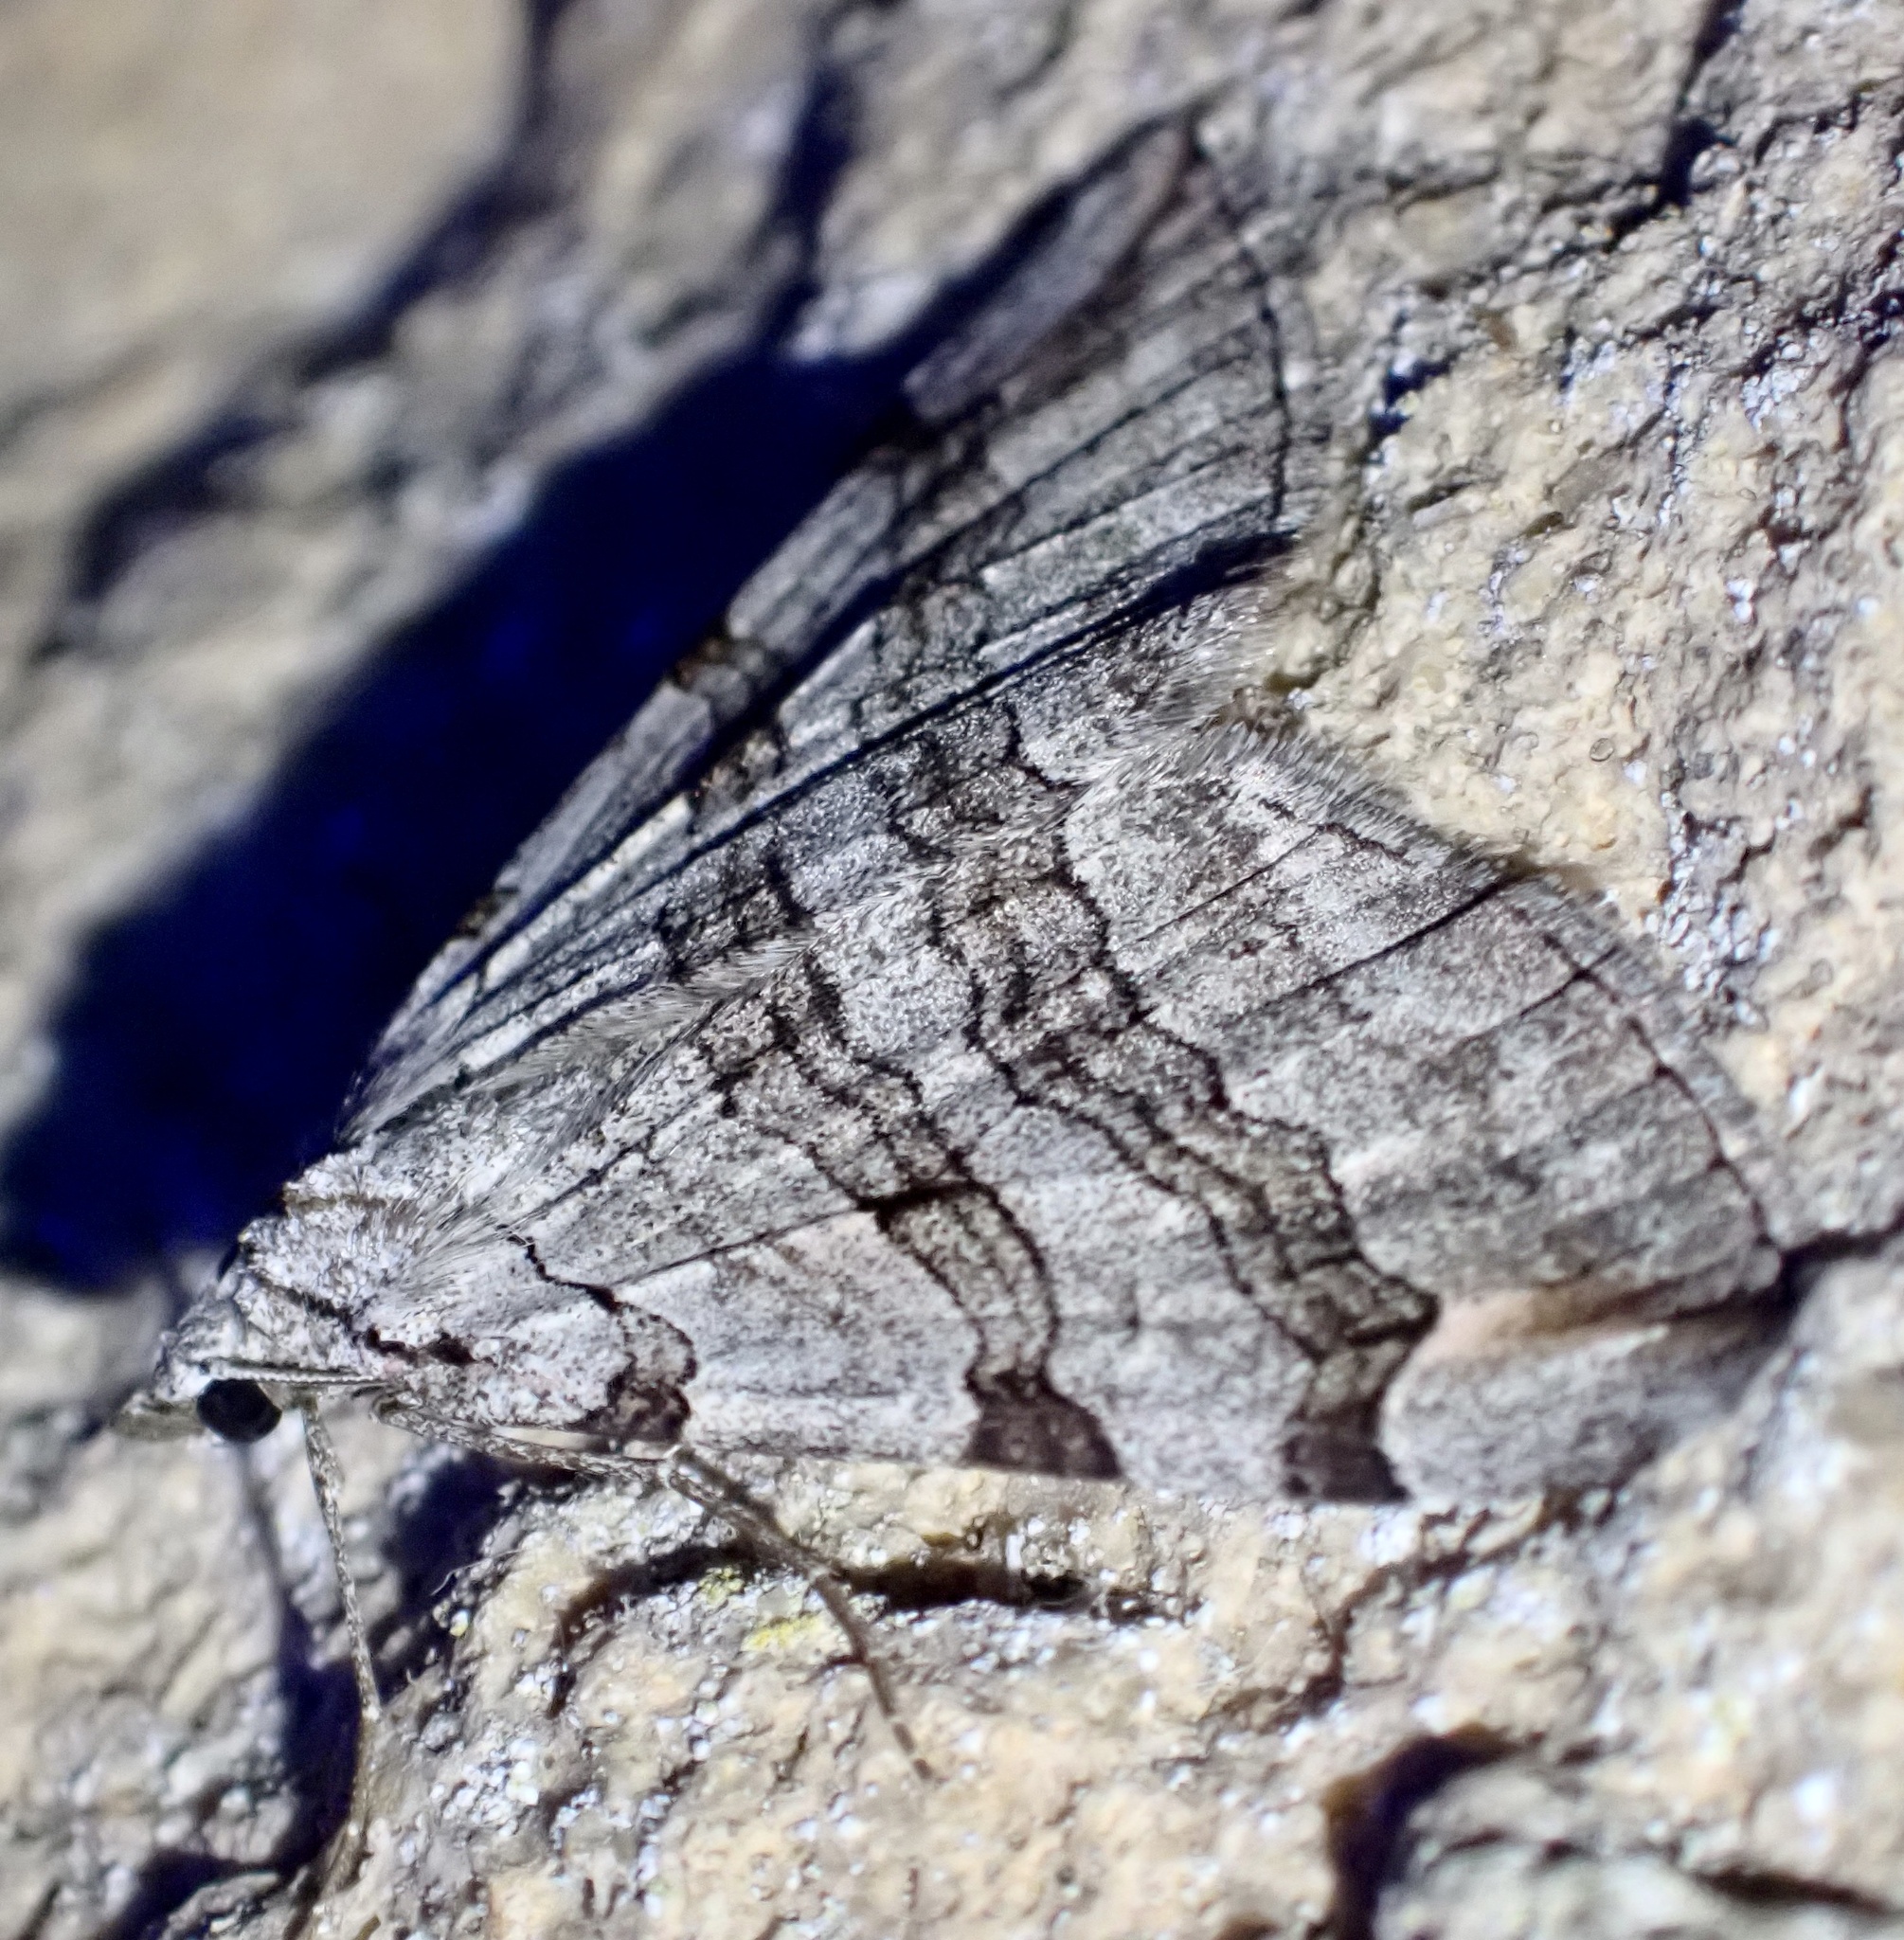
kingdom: Animalia
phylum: Arthropoda
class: Insecta
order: Lepidoptera
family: Geometridae
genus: Aplocera
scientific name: Aplocera plagiata
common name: Treble-bar
